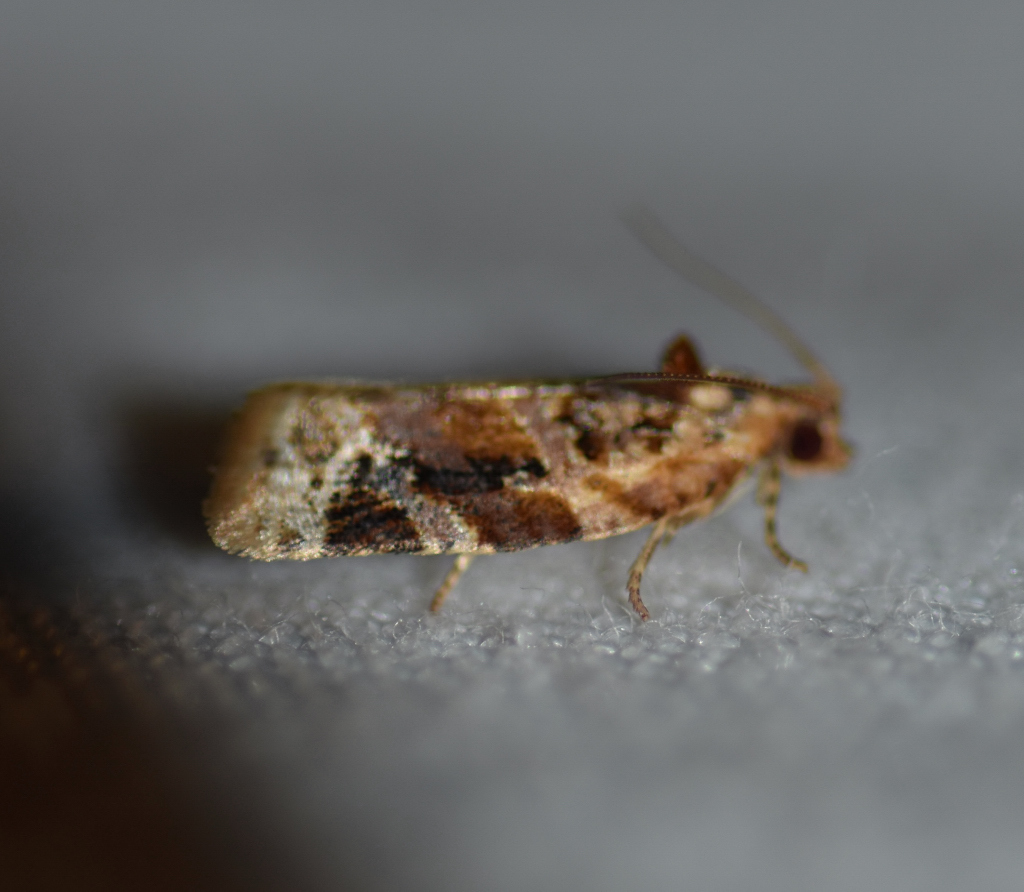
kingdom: Animalia
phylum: Arthropoda
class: Insecta
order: Lepidoptera
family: Tortricidae
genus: Argyrotaenia
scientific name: Argyrotaenia velutinana
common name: Red-banded leafroller moth
